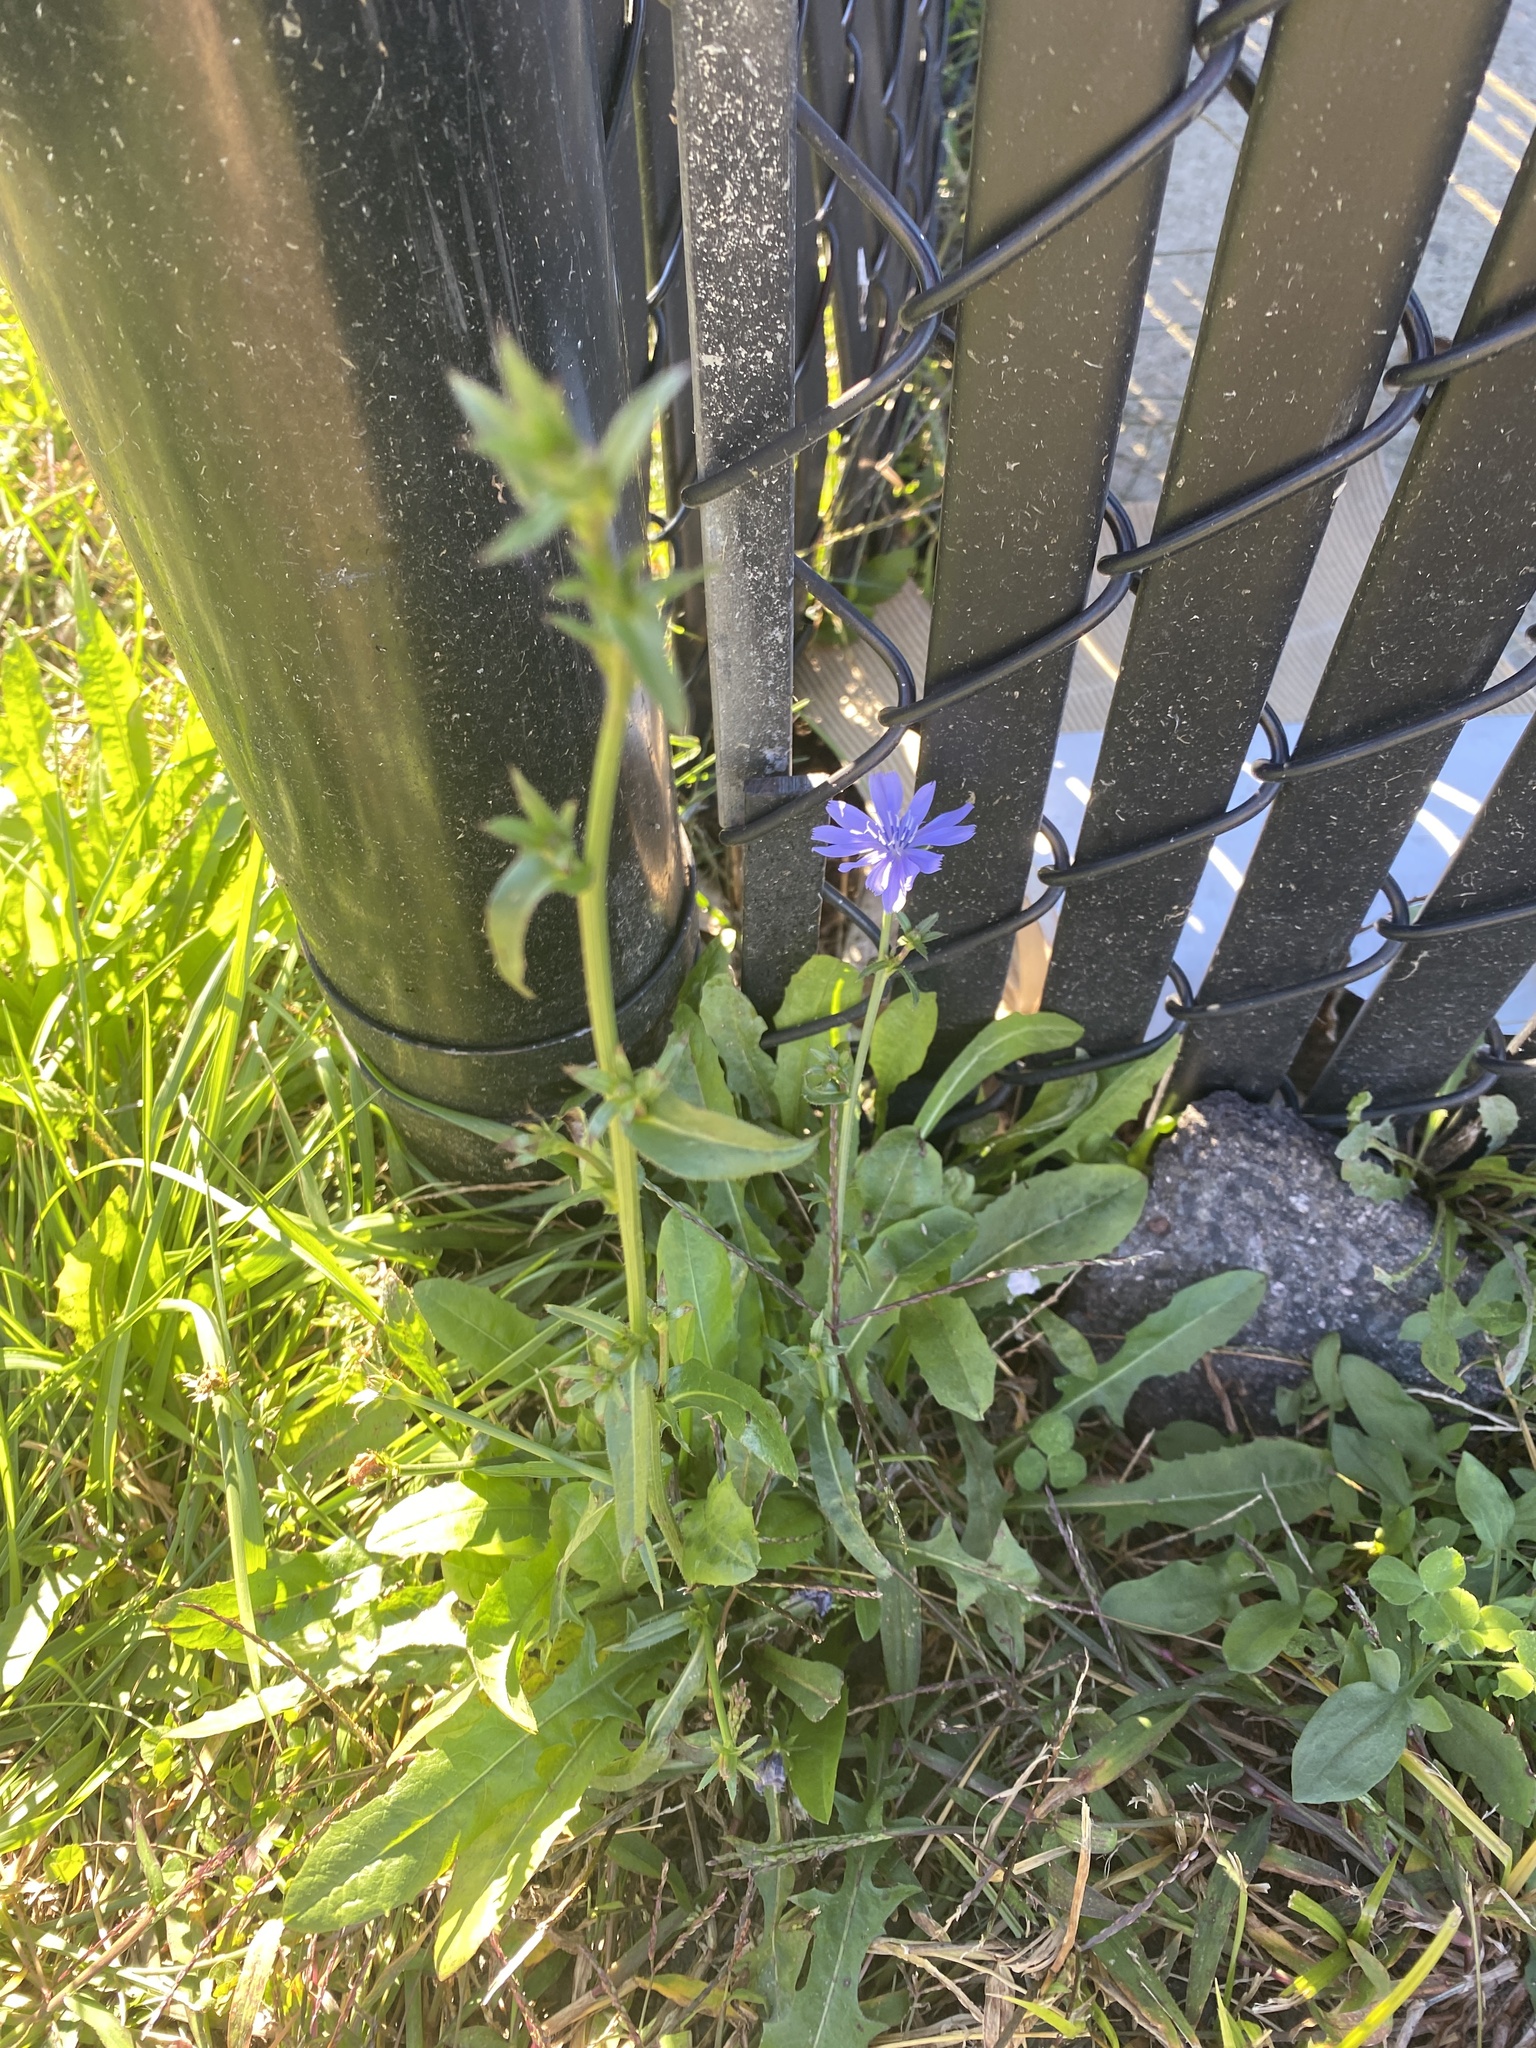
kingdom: Plantae
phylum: Tracheophyta
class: Magnoliopsida
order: Asterales
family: Asteraceae
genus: Cichorium
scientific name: Cichorium intybus
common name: Chicory
